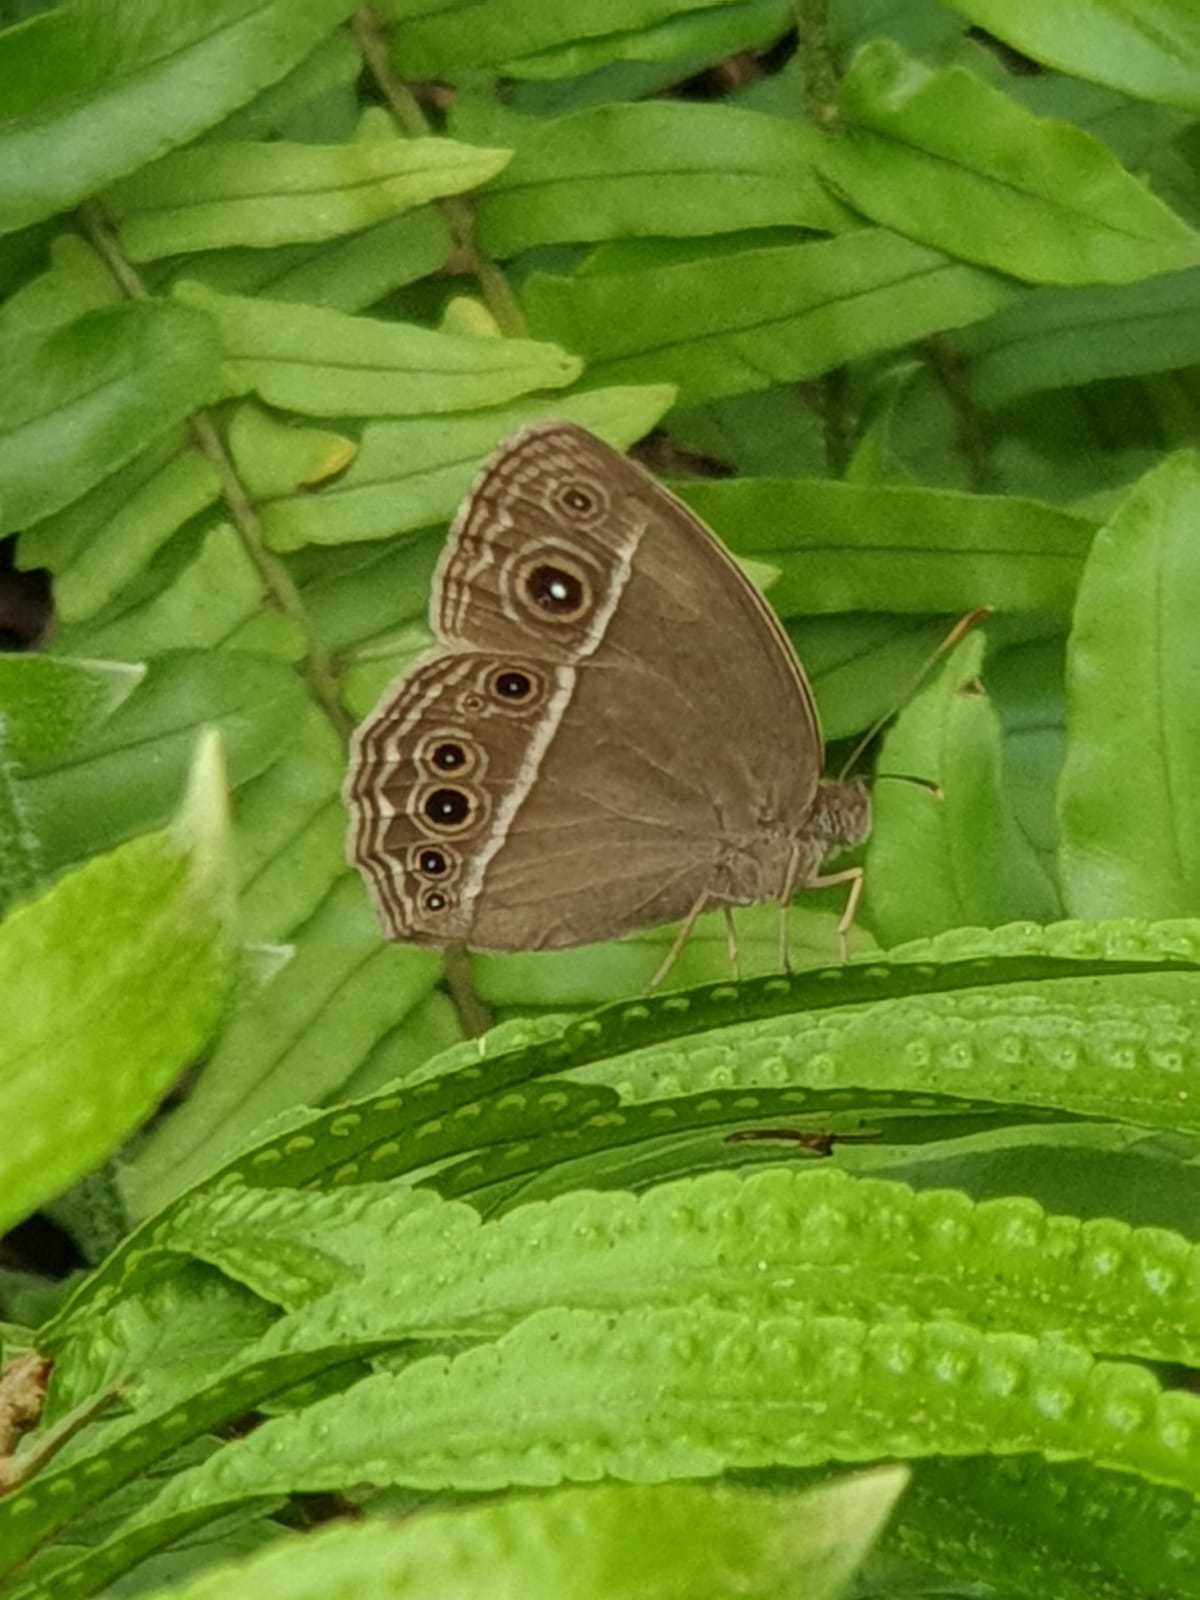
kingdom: Animalia
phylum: Arthropoda
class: Insecta
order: Lepidoptera
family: Nymphalidae
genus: Mycalesis
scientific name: Mycalesis mineus
